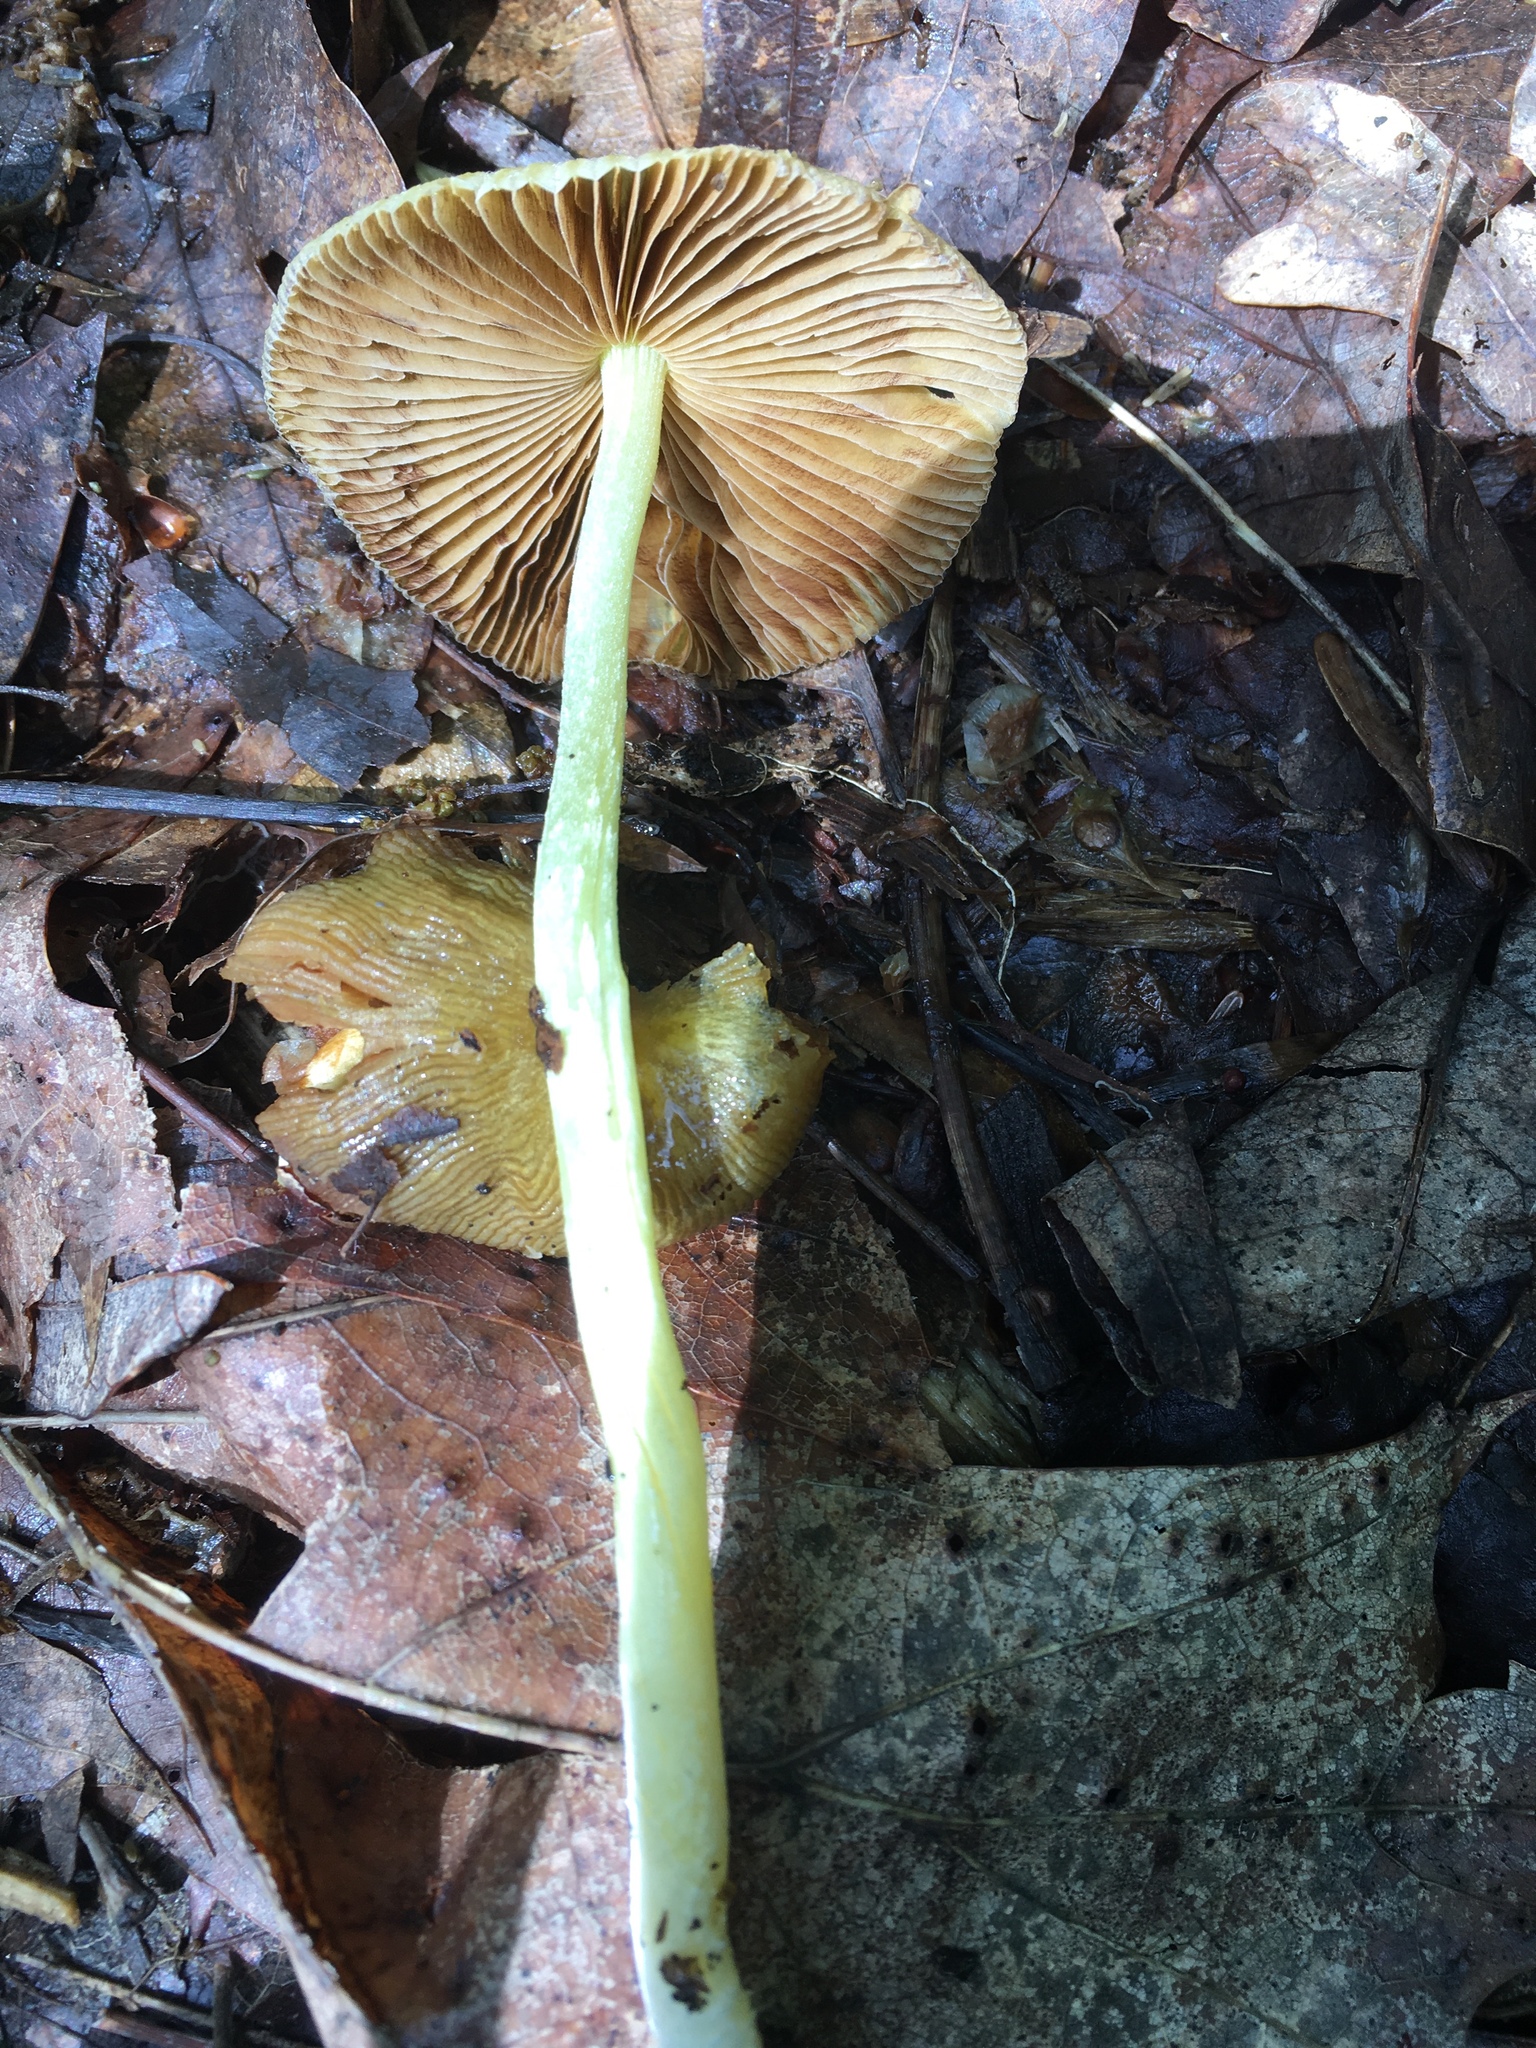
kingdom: Fungi
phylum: Basidiomycota
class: Agaricomycetes
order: Agaricales
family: Bolbitiaceae
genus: Bolbitius
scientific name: Bolbitius titubans
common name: Yellow fieldcap
